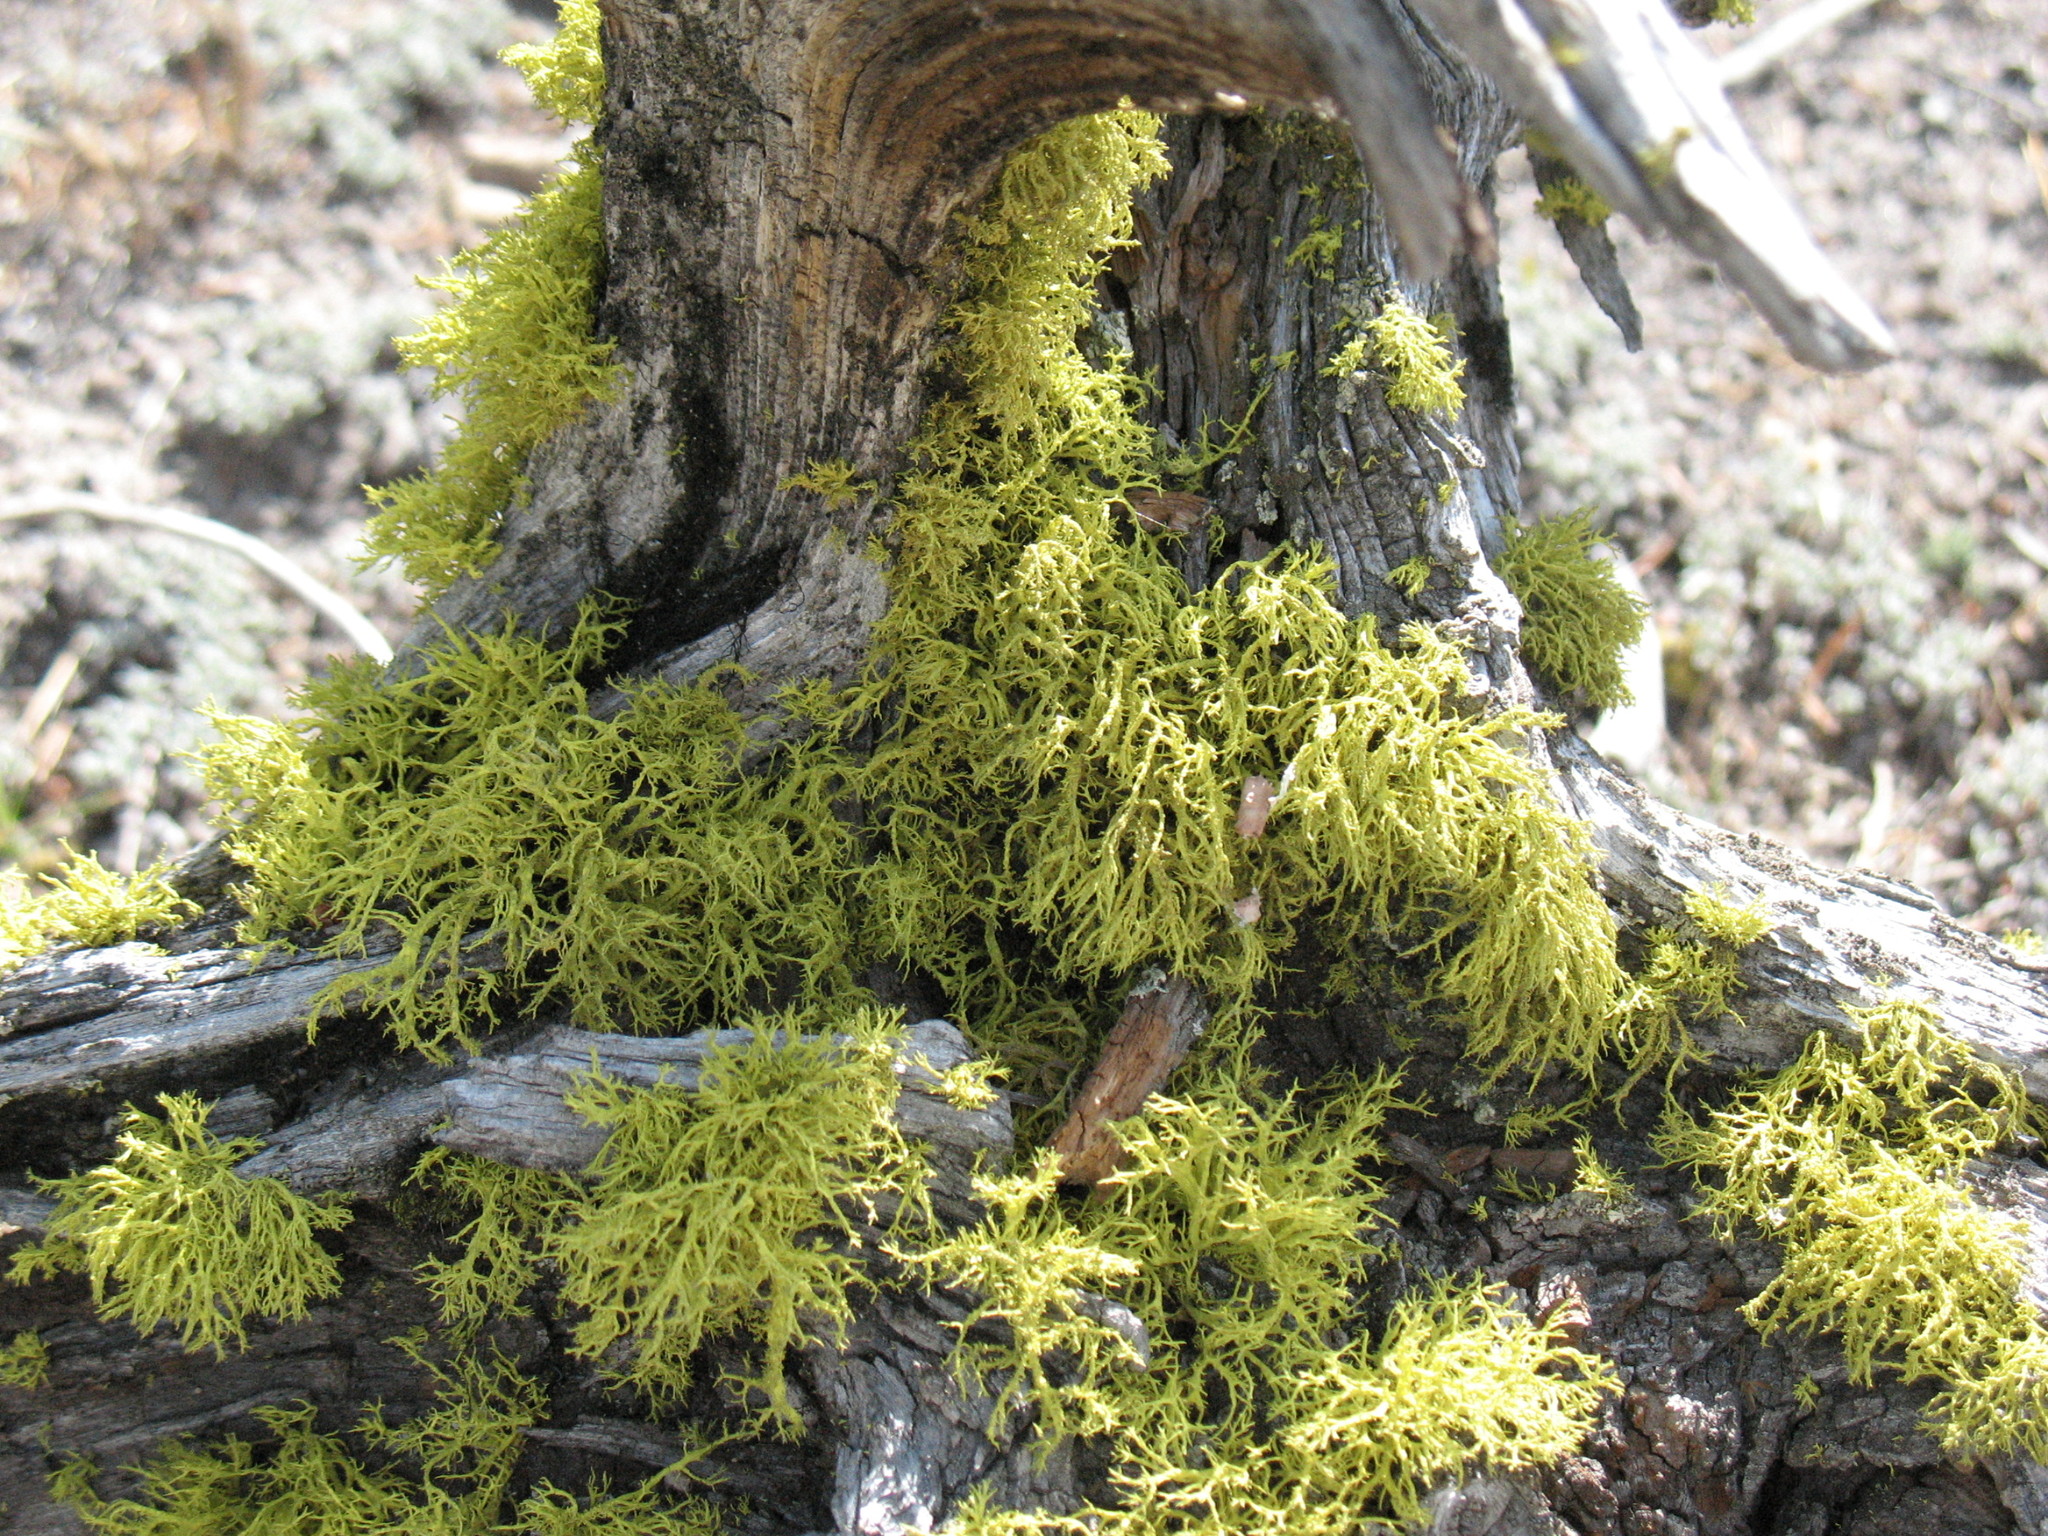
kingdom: Fungi
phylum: Ascomycota
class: Lecanoromycetes
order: Lecanorales
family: Parmeliaceae
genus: Letharia
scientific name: Letharia vulpina
